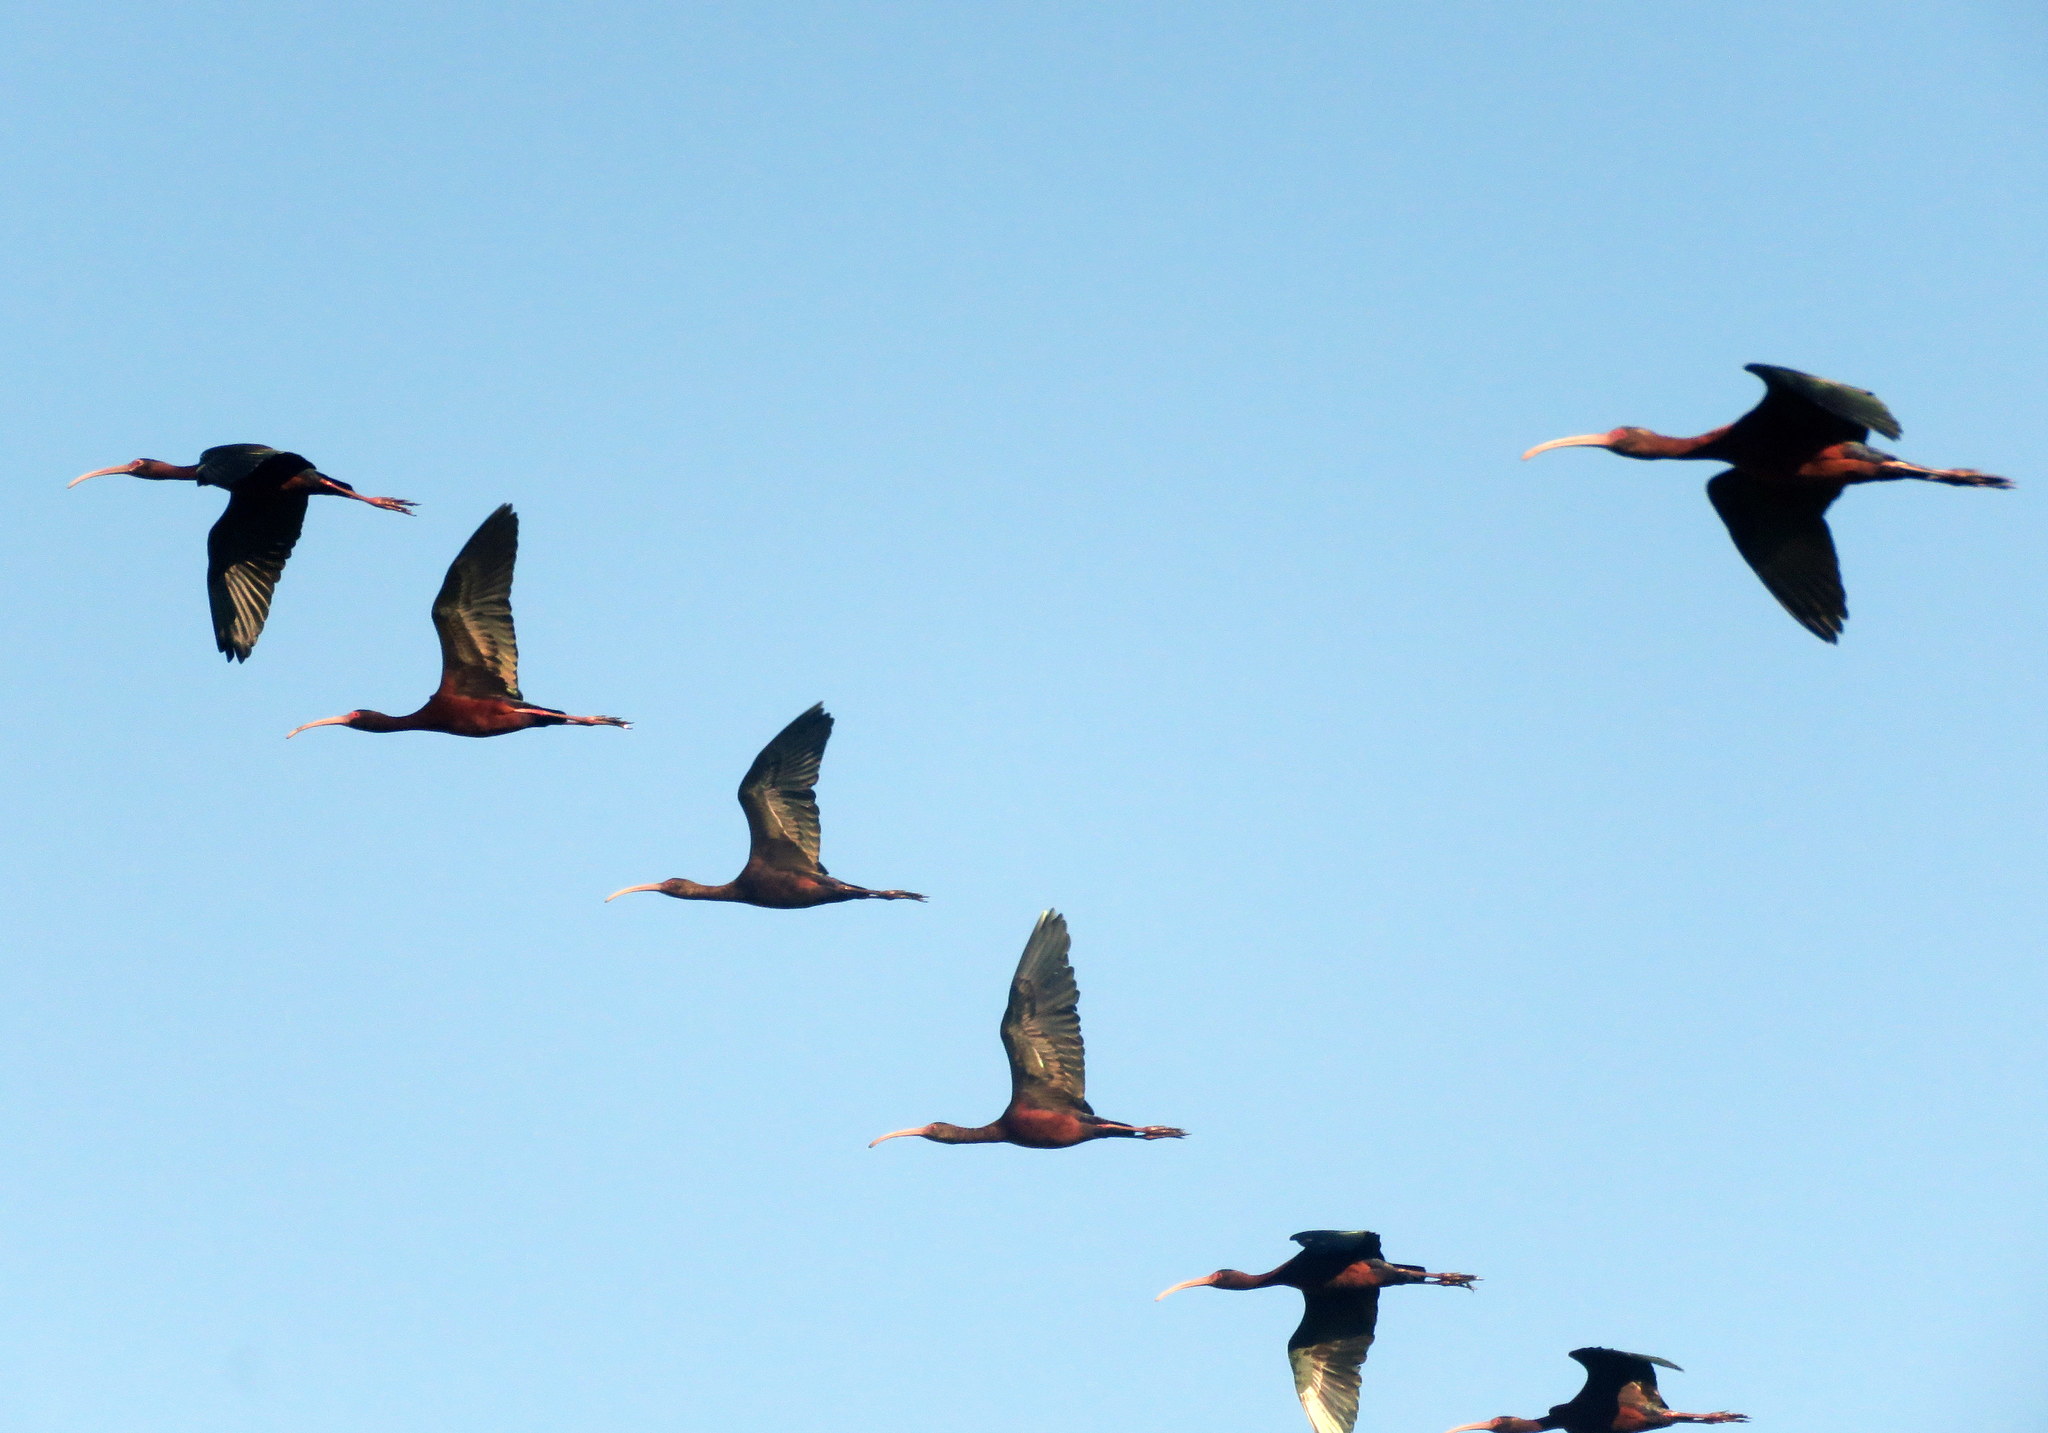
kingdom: Animalia
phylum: Chordata
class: Aves
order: Pelecaniformes
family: Threskiornithidae
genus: Plegadis
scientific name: Plegadis chihi
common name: White-faced ibis
